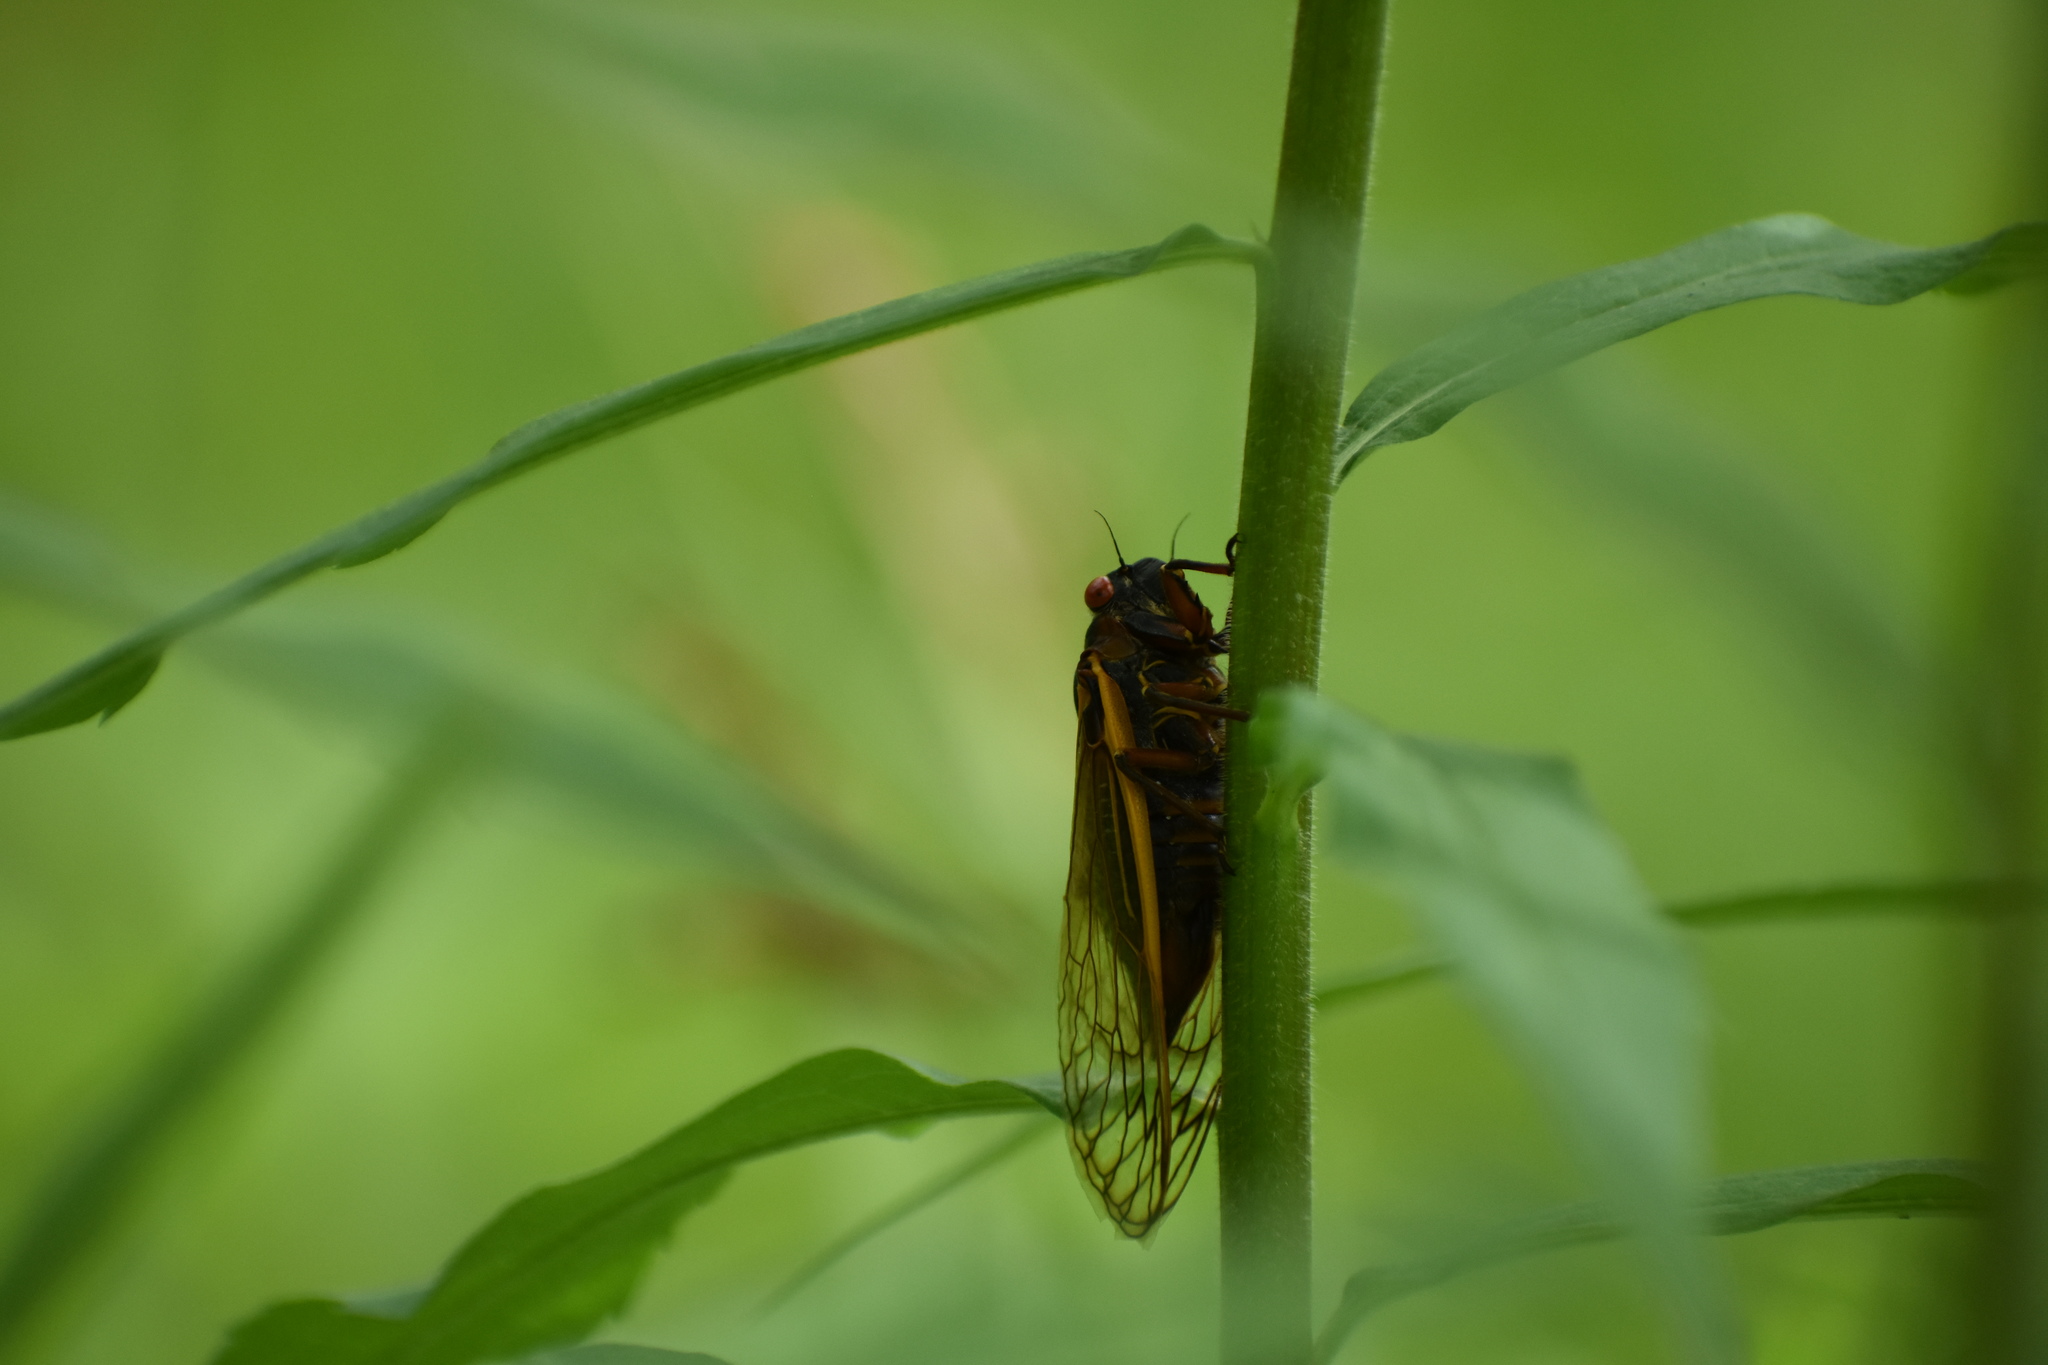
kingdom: Animalia
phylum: Arthropoda
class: Insecta
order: Hemiptera
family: Cicadidae
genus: Magicicada
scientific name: Magicicada septendecim
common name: Periodical cicada
